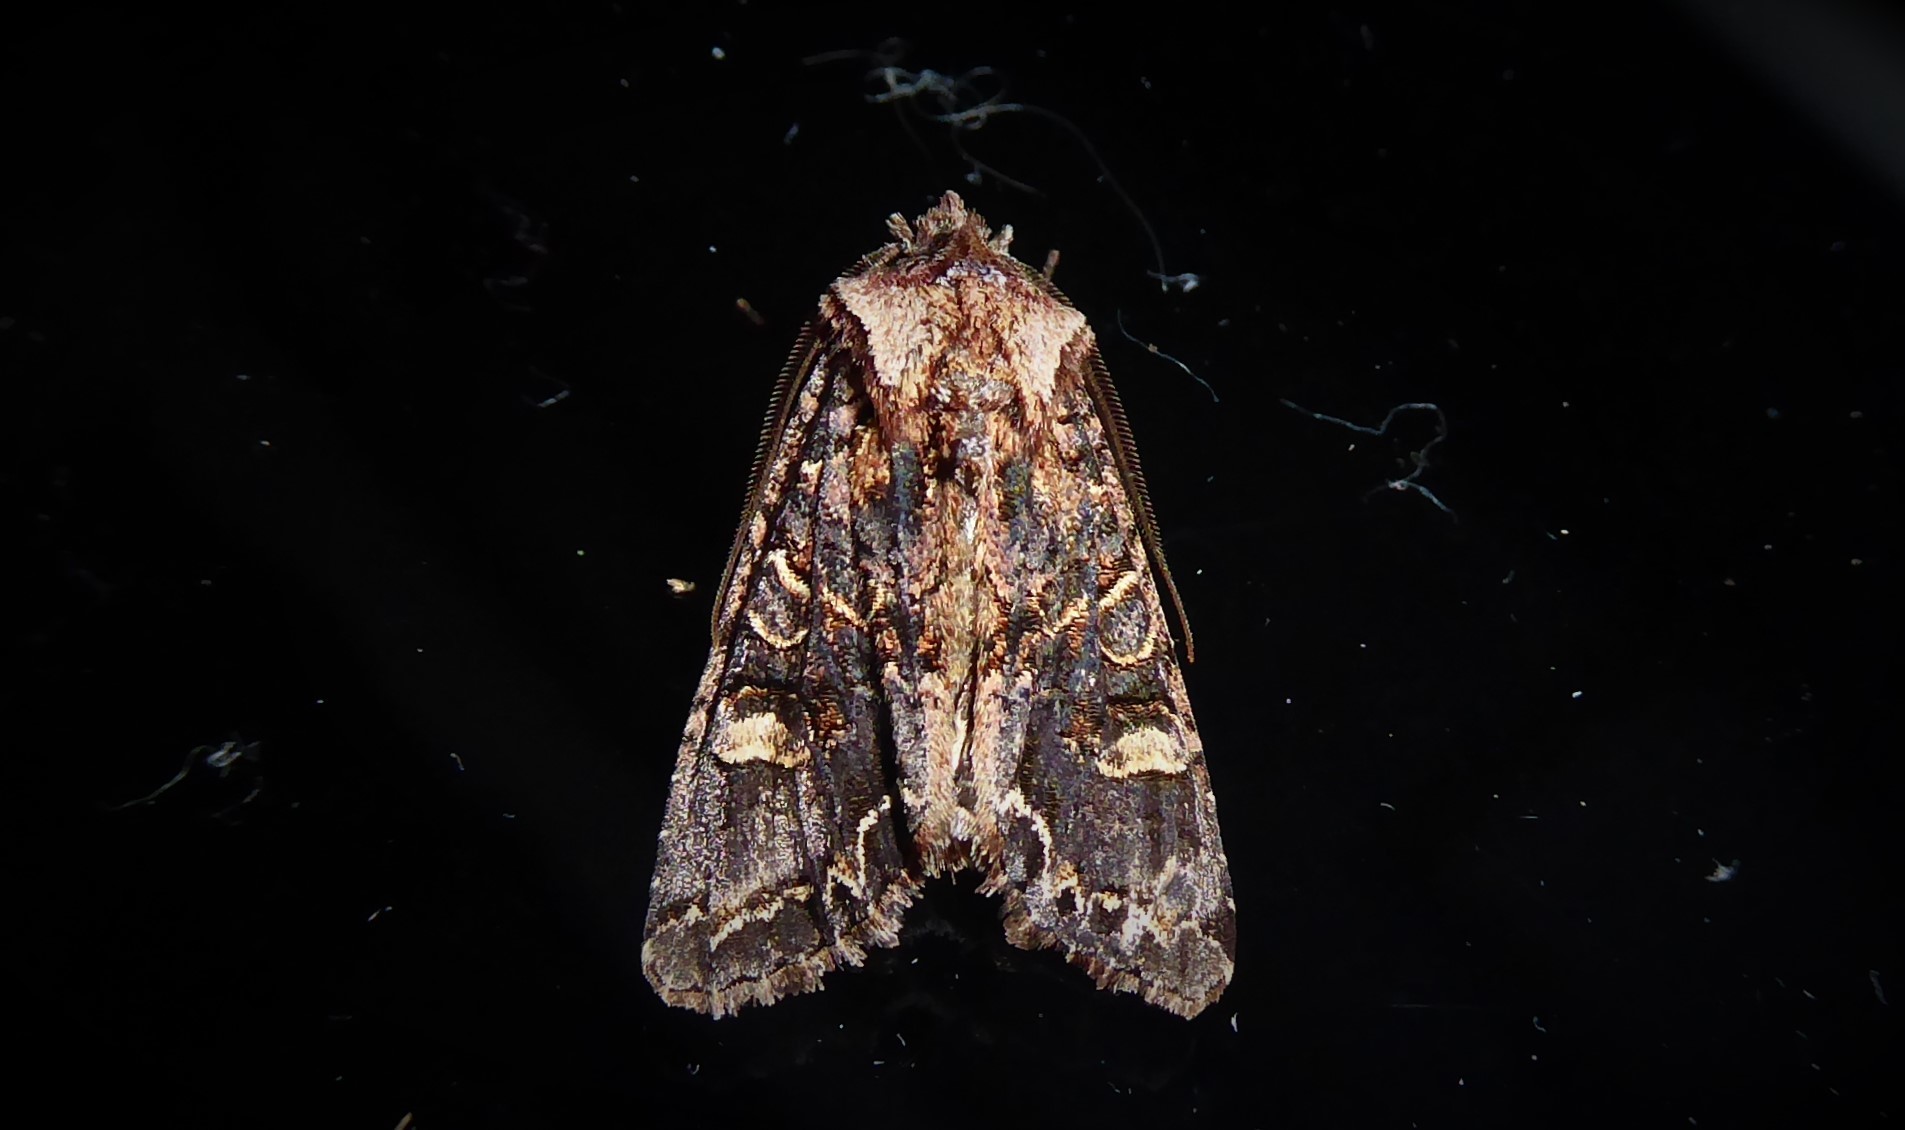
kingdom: Animalia
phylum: Arthropoda
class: Insecta
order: Lepidoptera
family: Noctuidae
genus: Ichneutica
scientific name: Ichneutica skelloni
